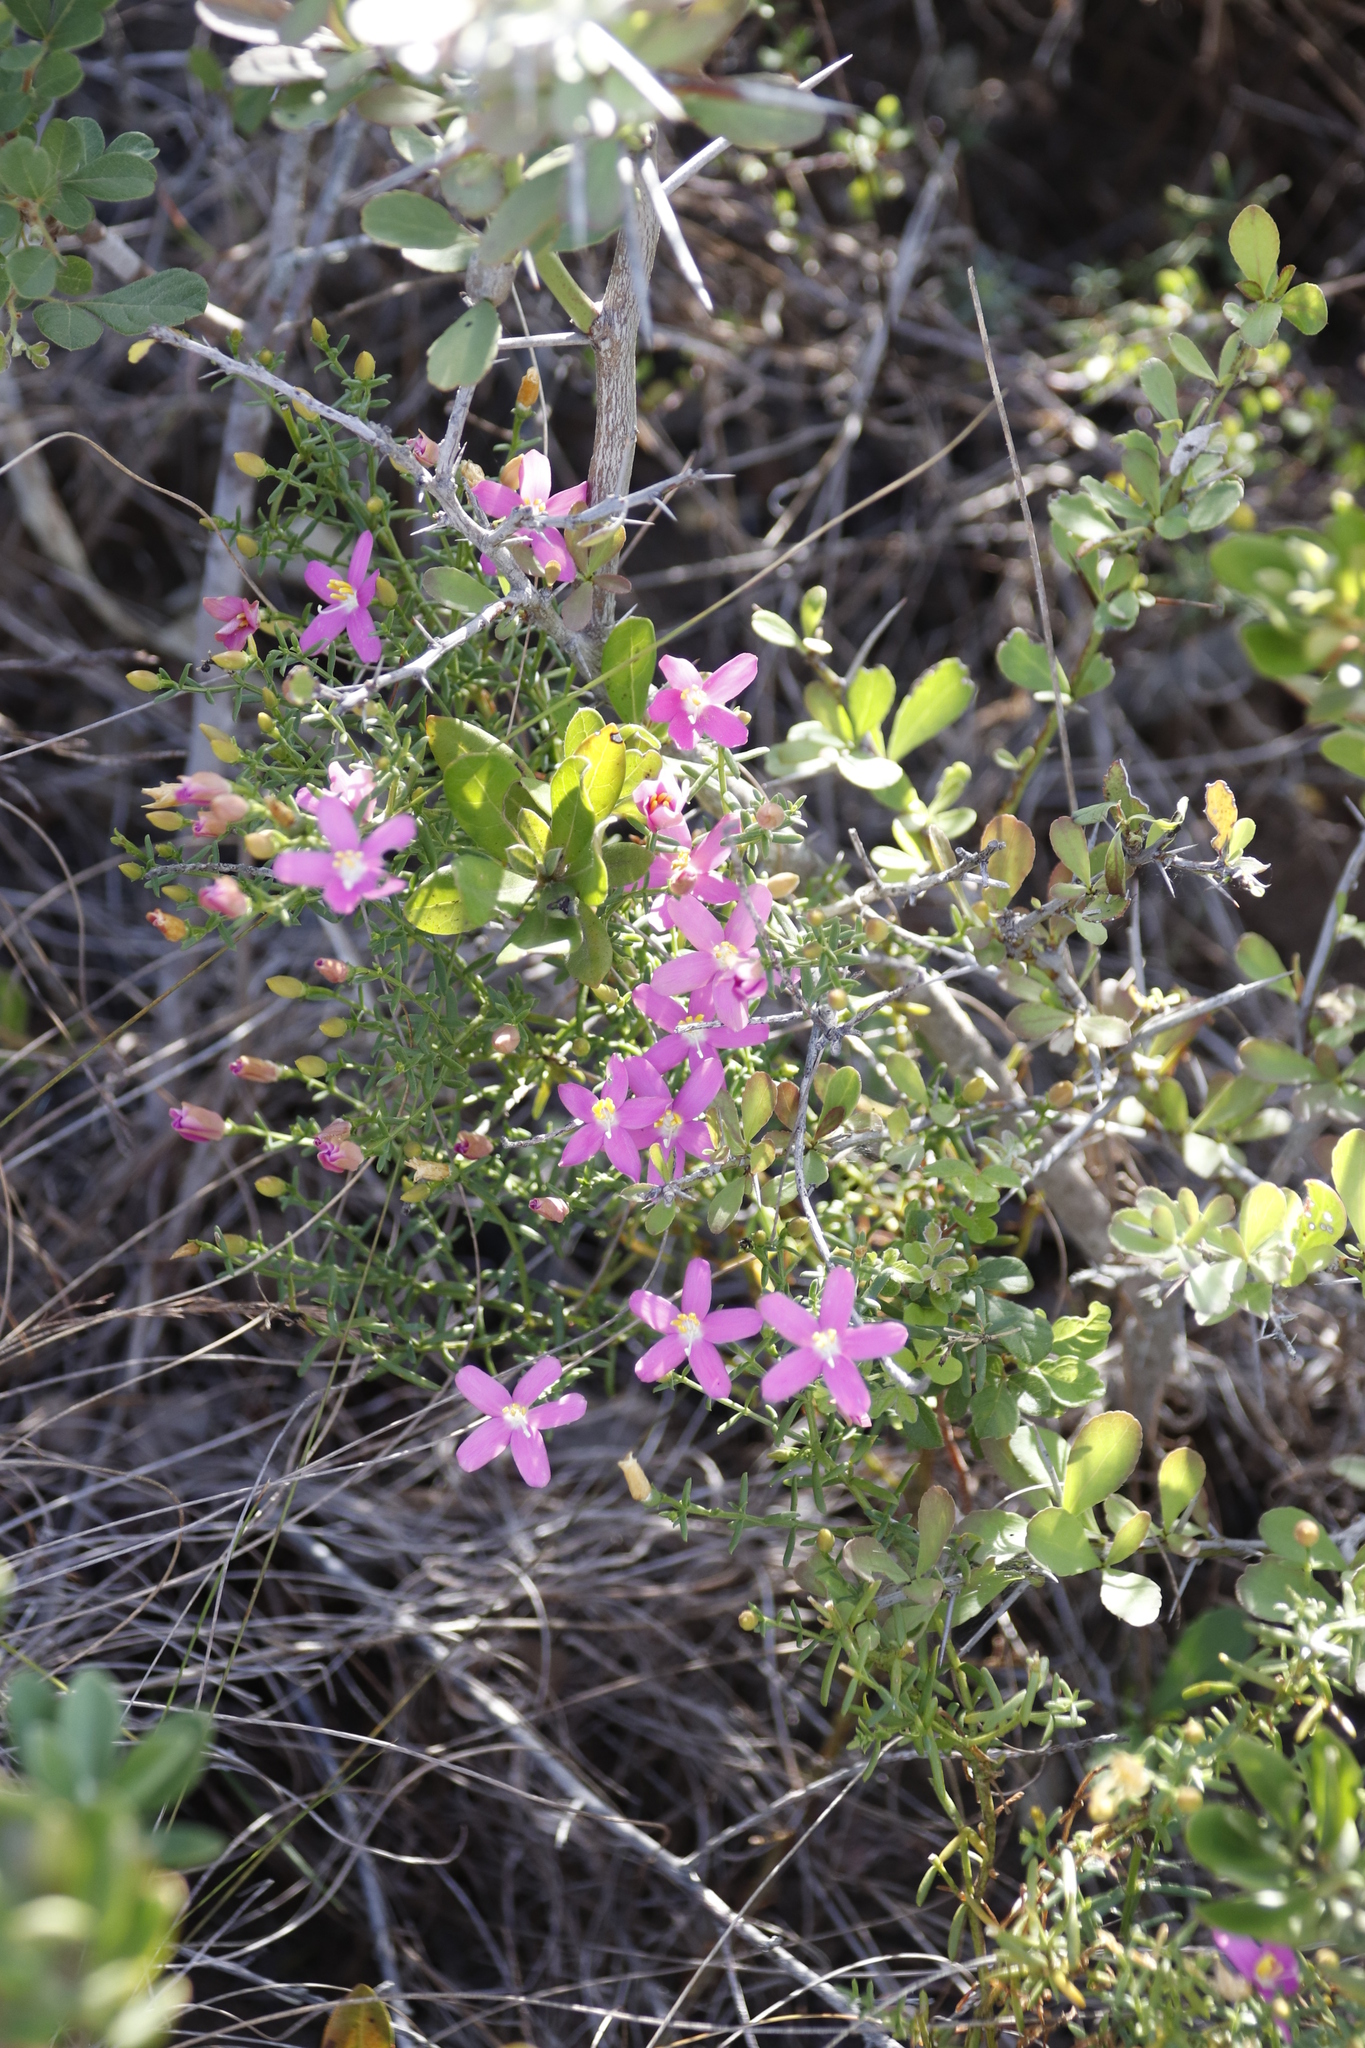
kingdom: Plantae
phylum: Tracheophyta
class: Magnoliopsida
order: Gentianales
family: Gentianaceae
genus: Chironia
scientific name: Chironia baccifera
